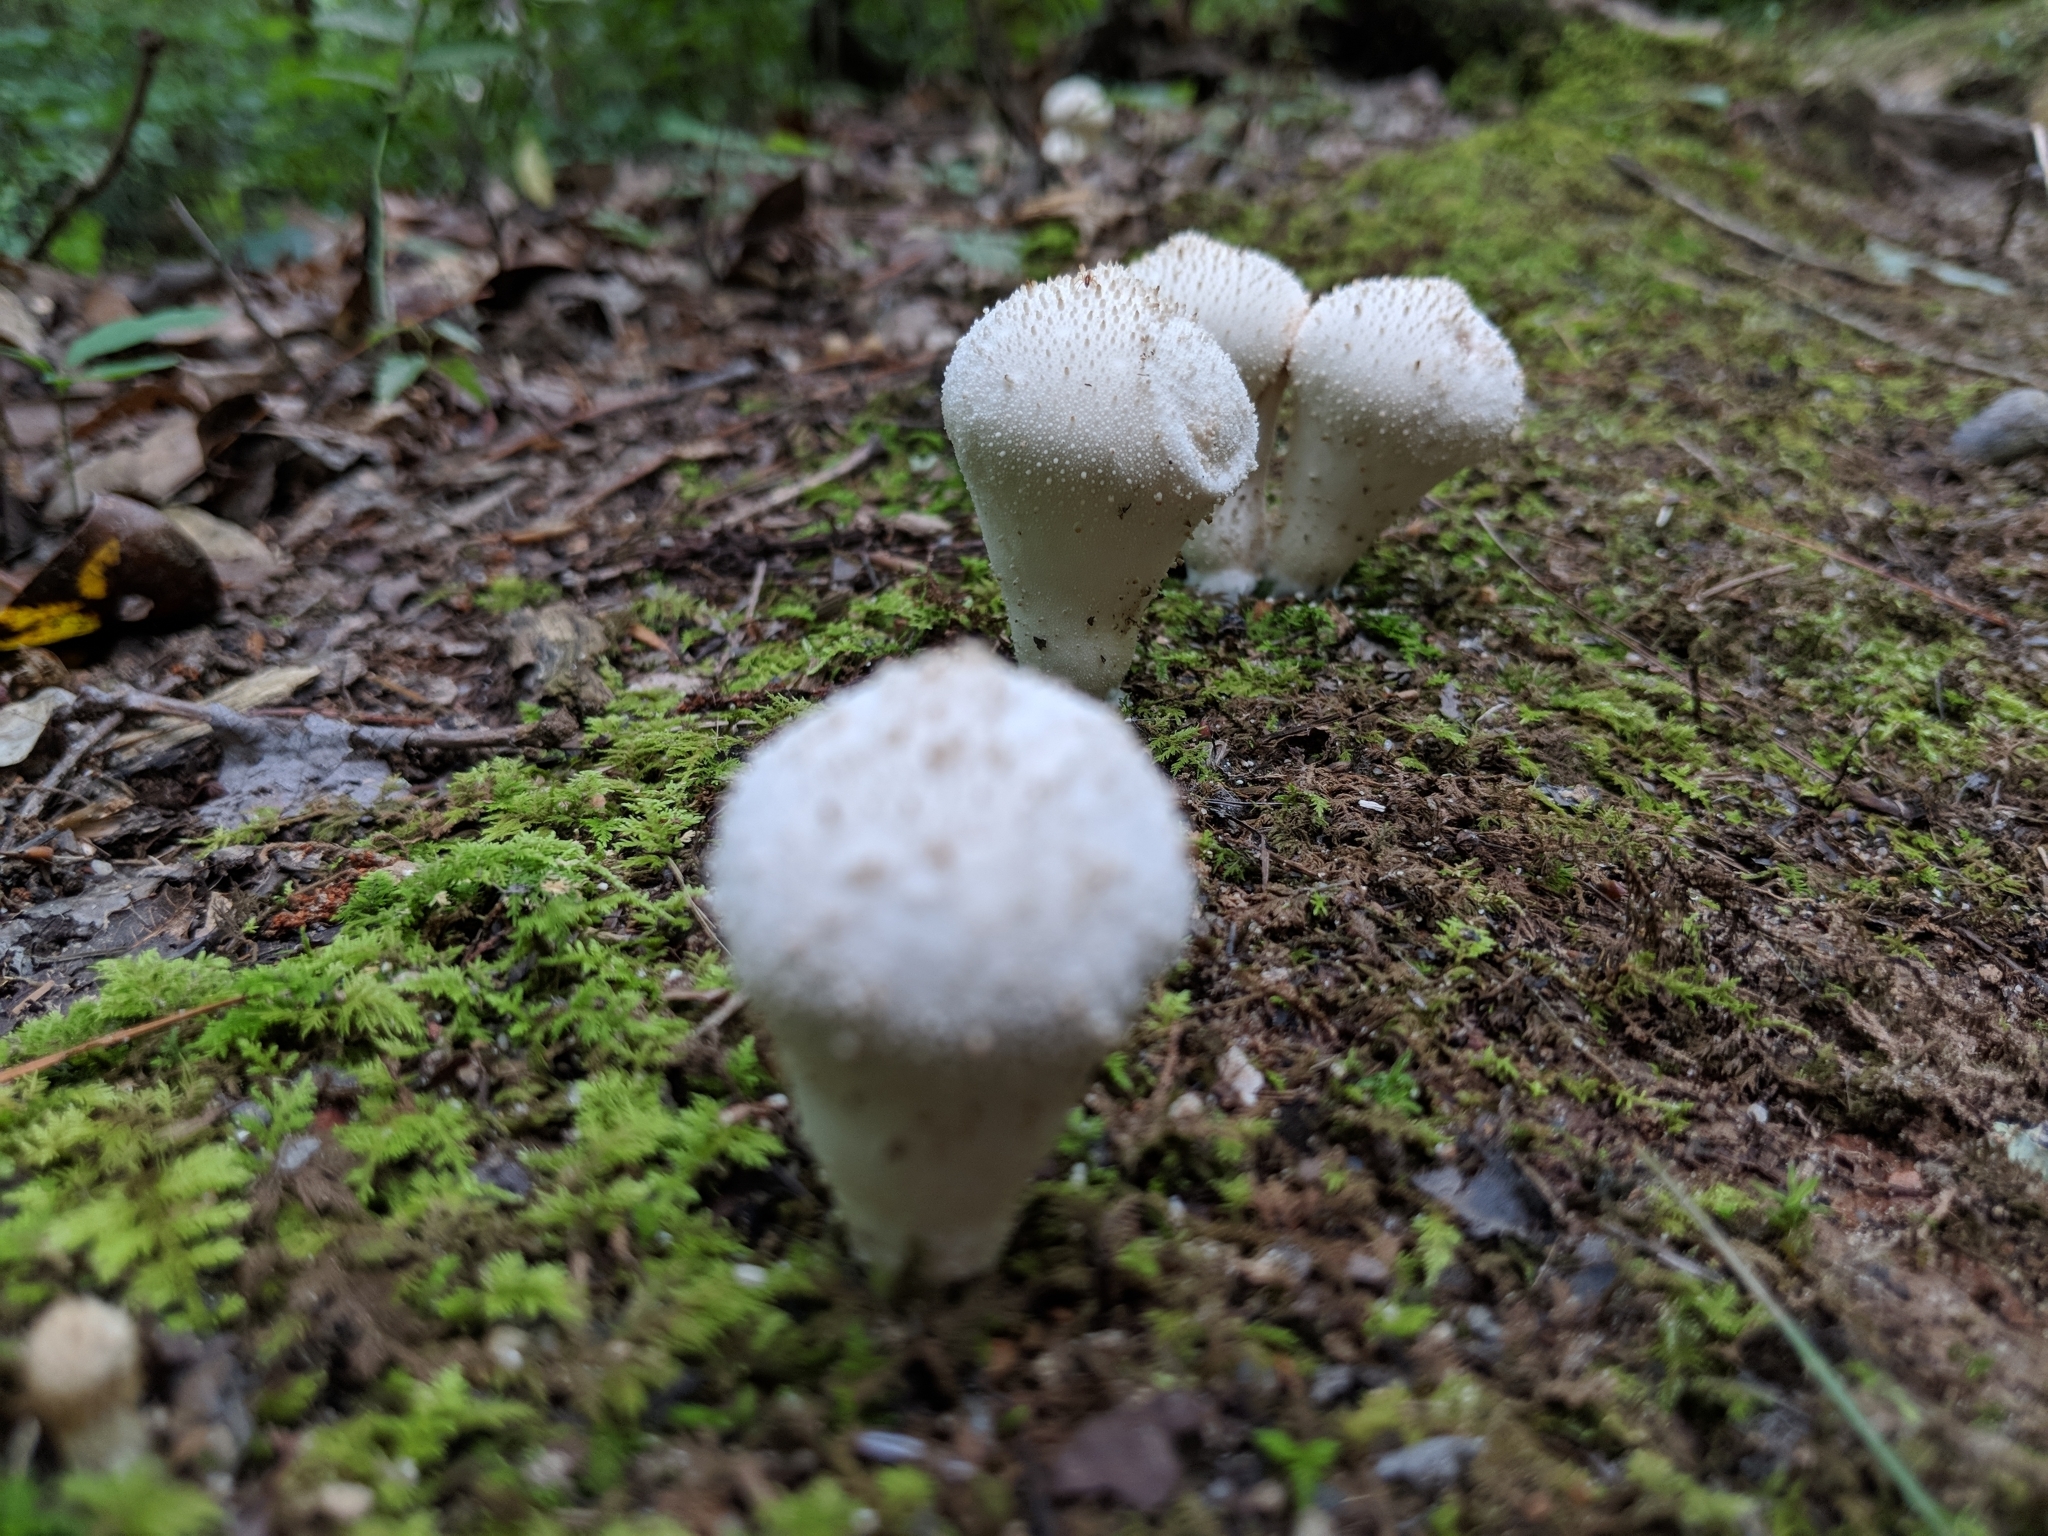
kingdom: Fungi
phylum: Basidiomycota
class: Agaricomycetes
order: Agaricales
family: Lycoperdaceae
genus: Lycoperdon
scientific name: Lycoperdon perlatum
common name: Common puffball
